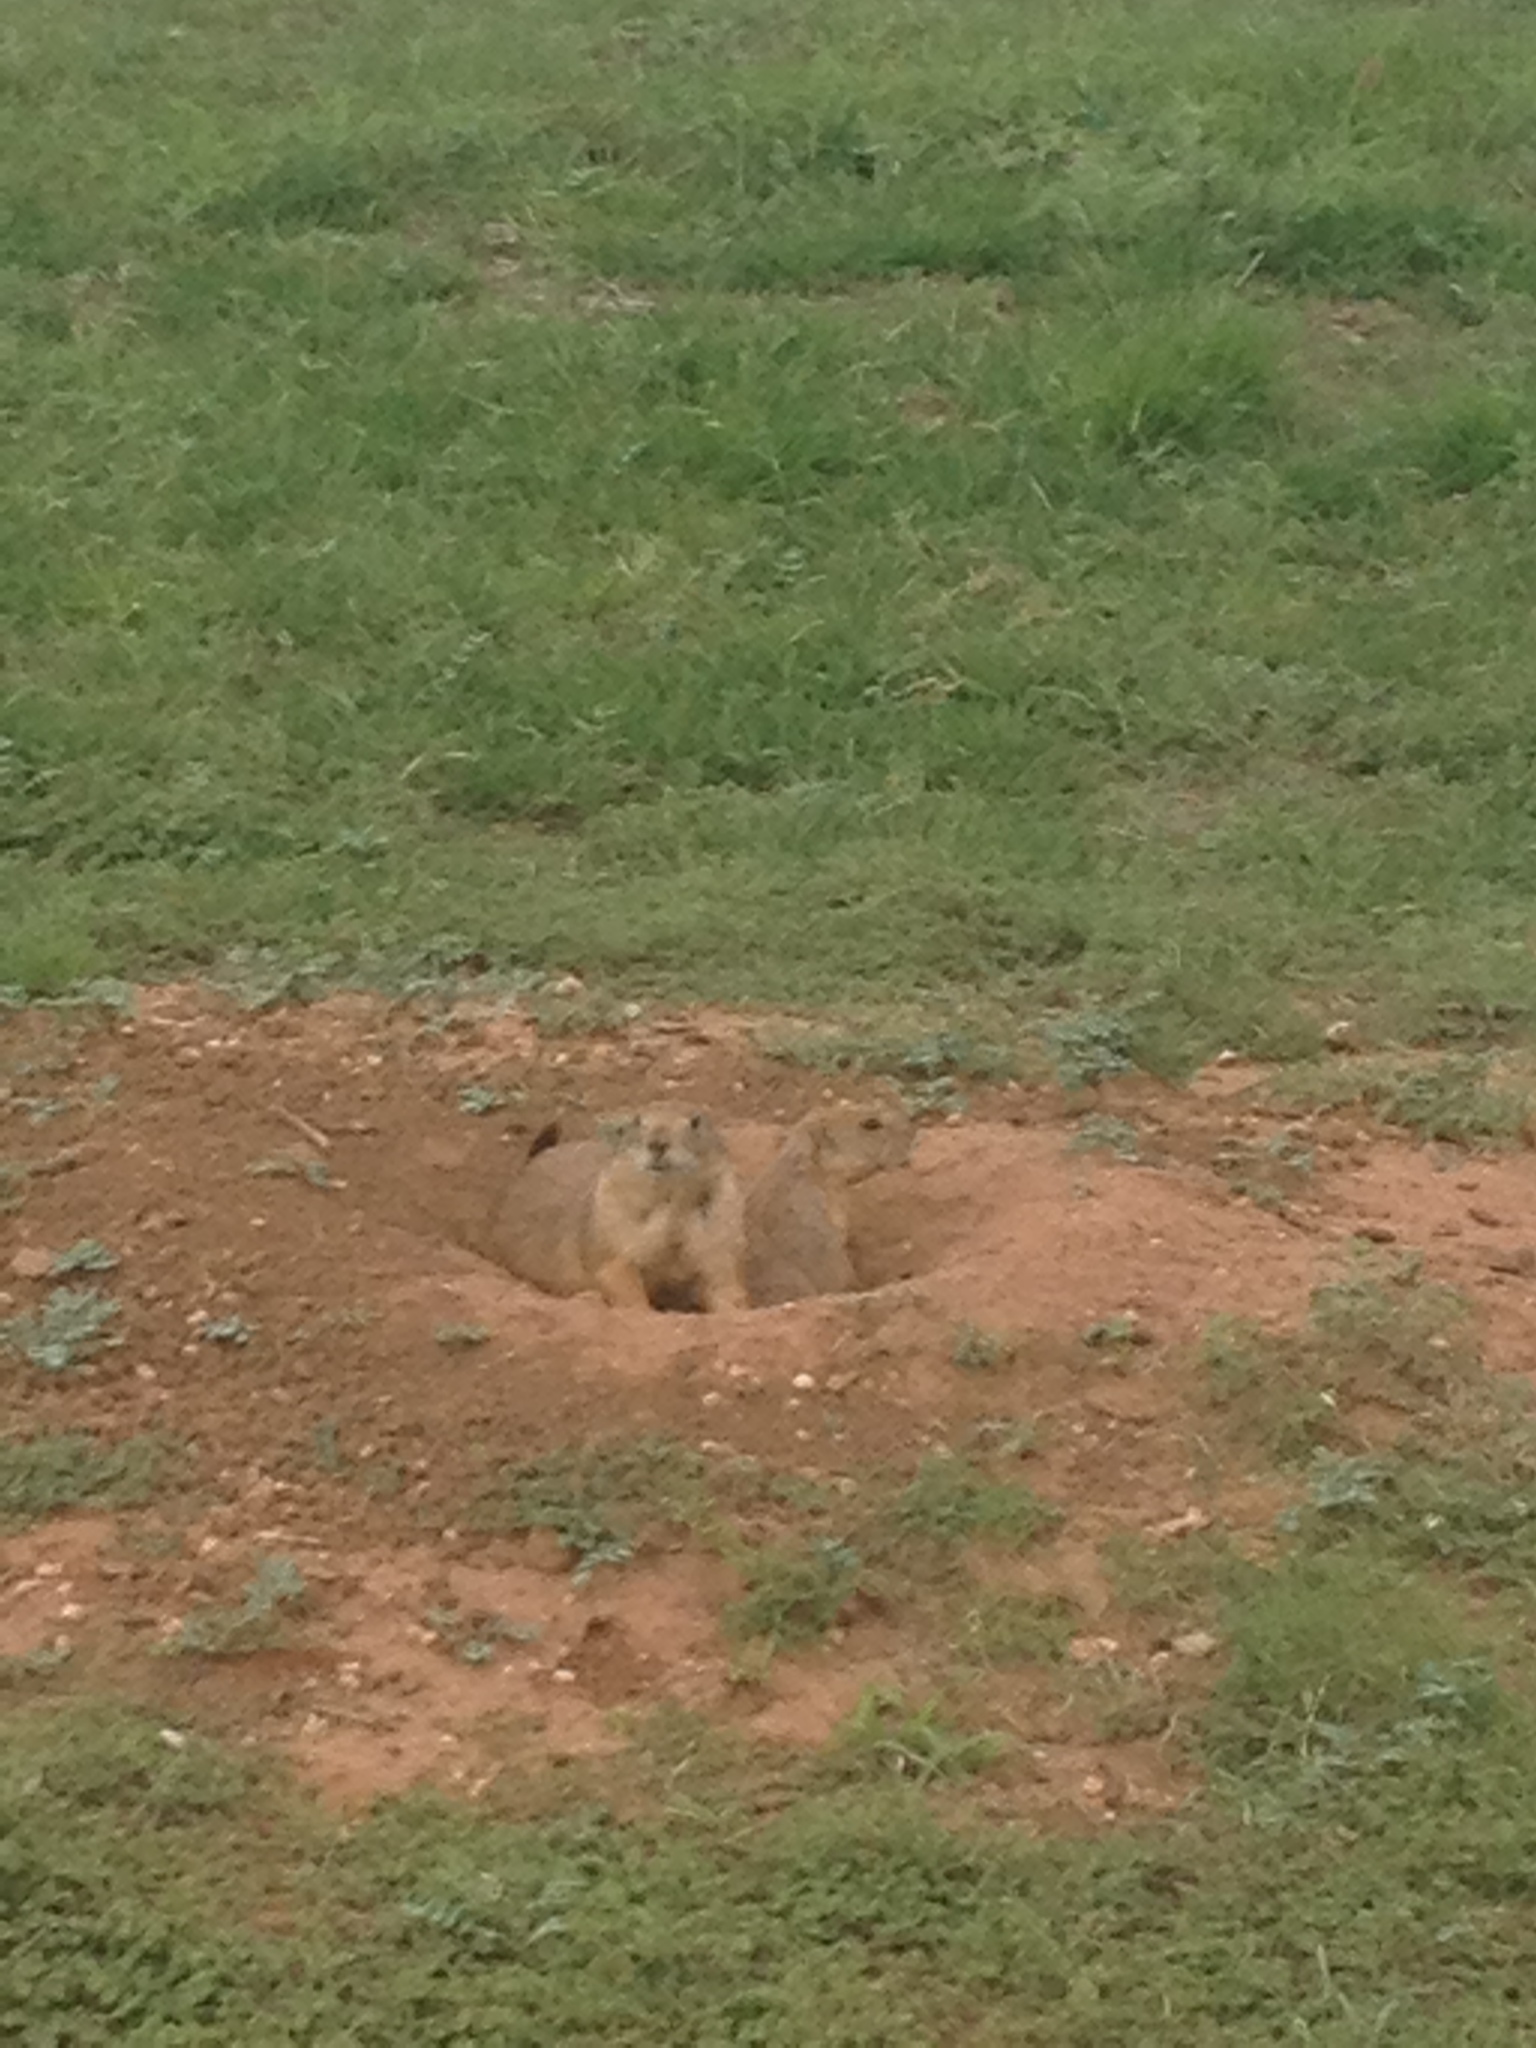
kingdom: Animalia
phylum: Chordata
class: Mammalia
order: Rodentia
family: Sciuridae
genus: Cynomys
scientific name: Cynomys ludovicianus
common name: Black-tailed prairie dog
